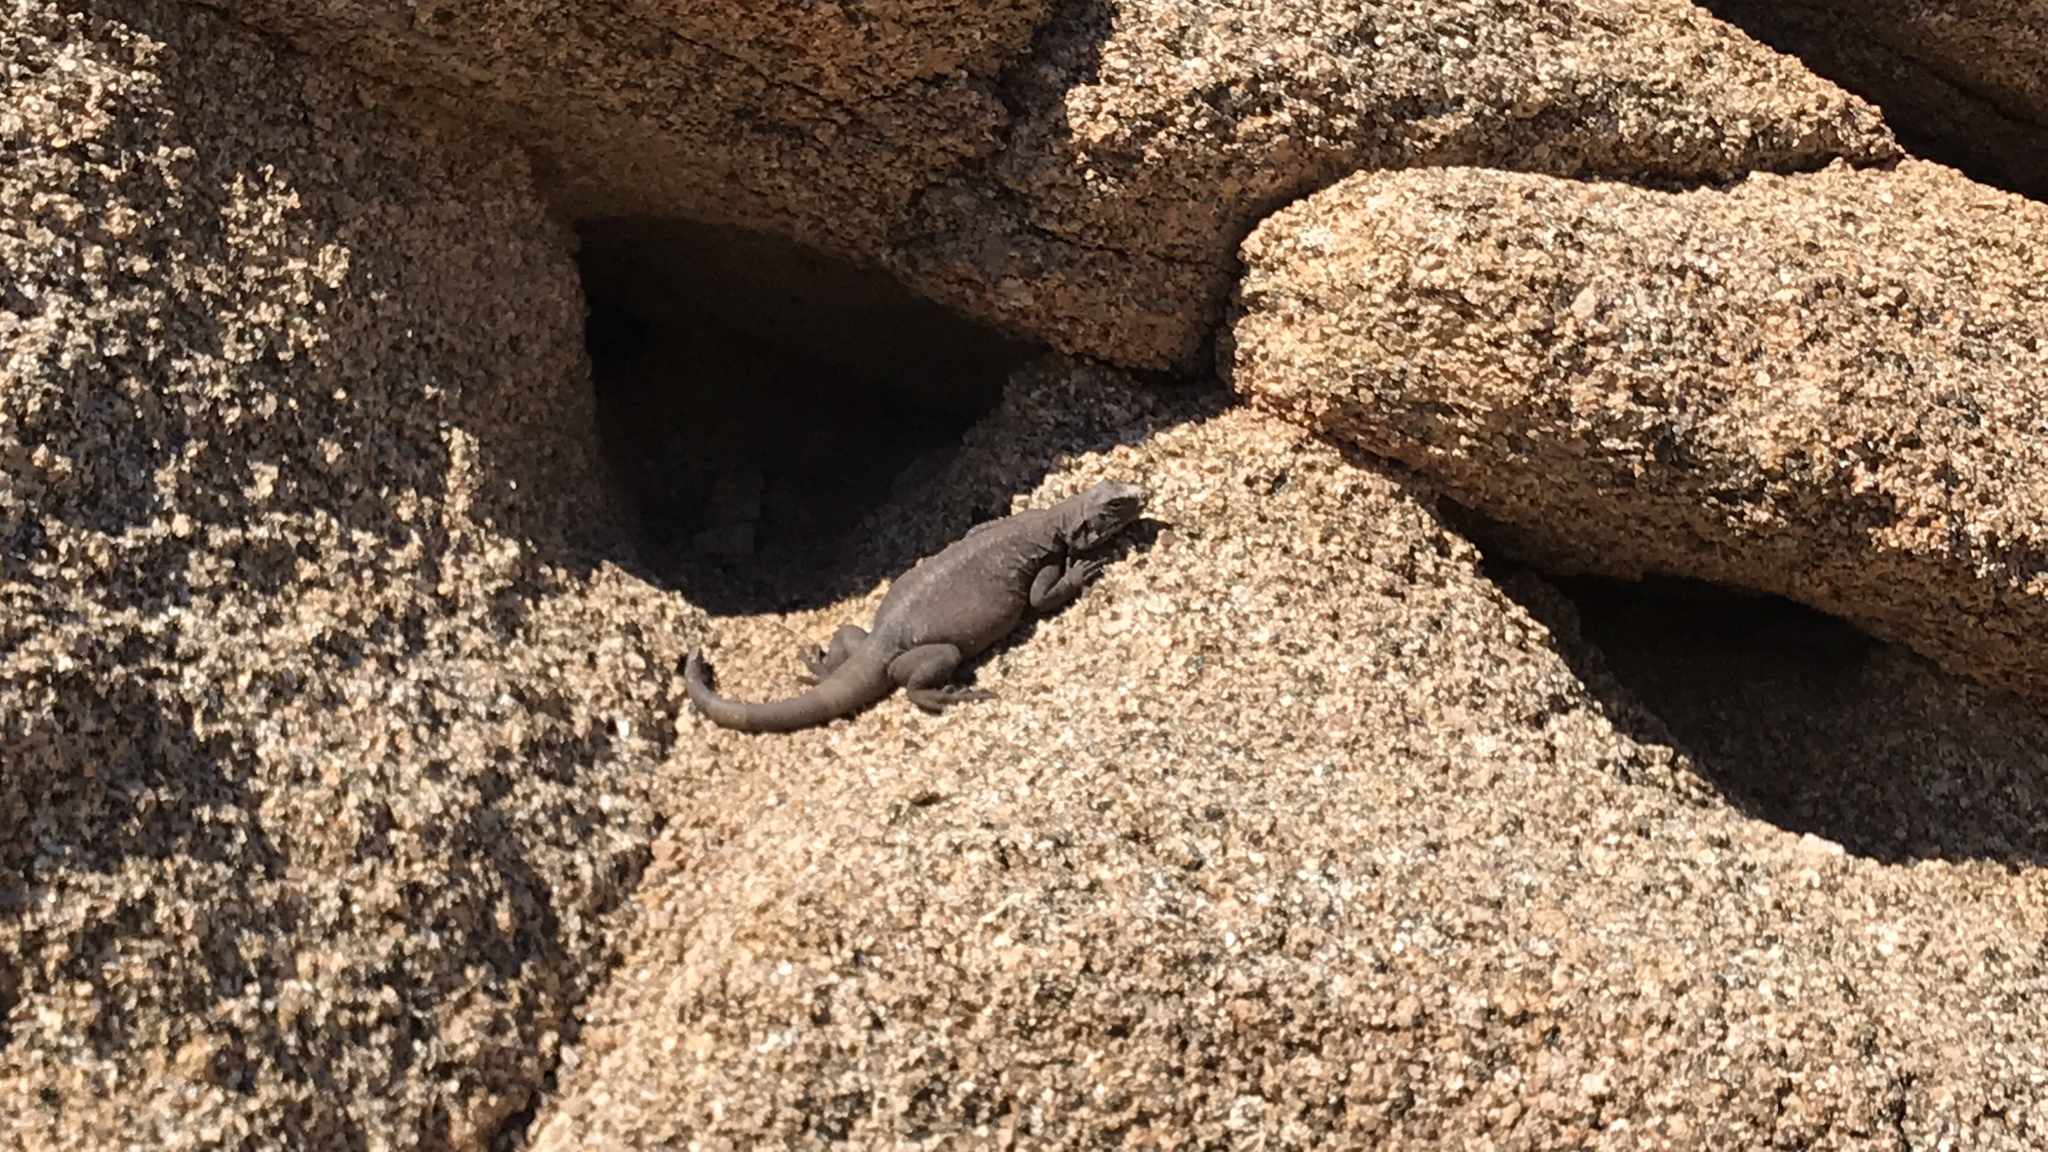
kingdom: Animalia
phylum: Chordata
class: Squamata
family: Iguanidae
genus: Sauromalus
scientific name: Sauromalus ater
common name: Northern chuckwalla
